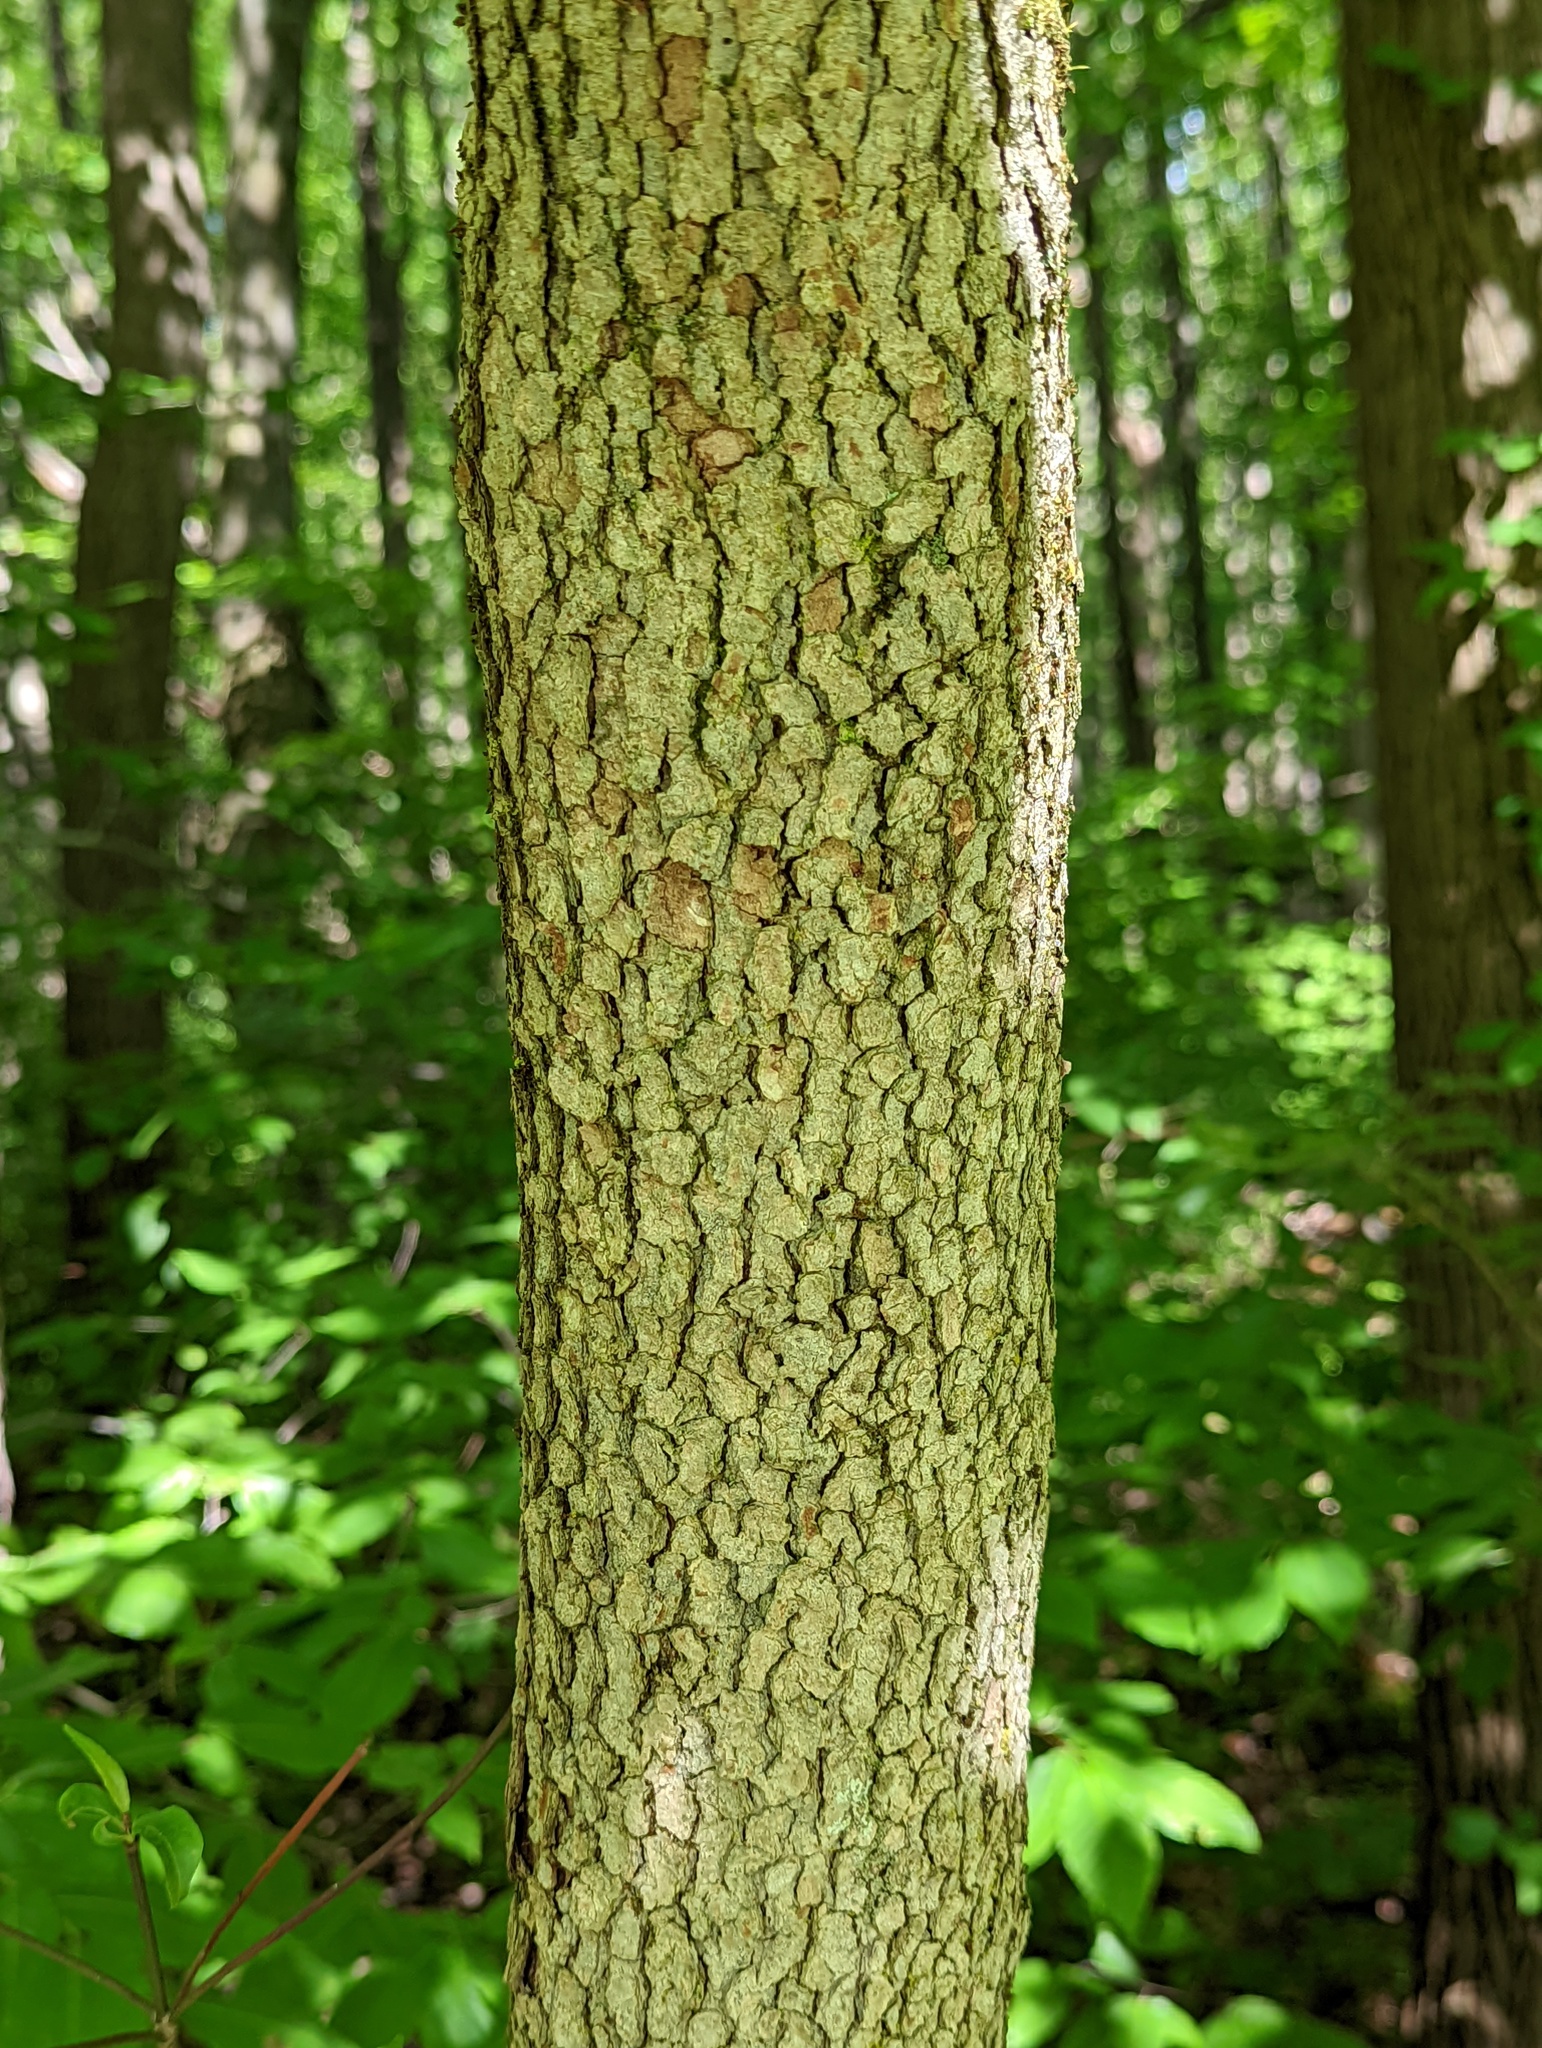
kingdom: Plantae
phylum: Tracheophyta
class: Magnoliopsida
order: Cornales
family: Cornaceae
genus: Cornus
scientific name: Cornus florida
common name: Flowering dogwood
